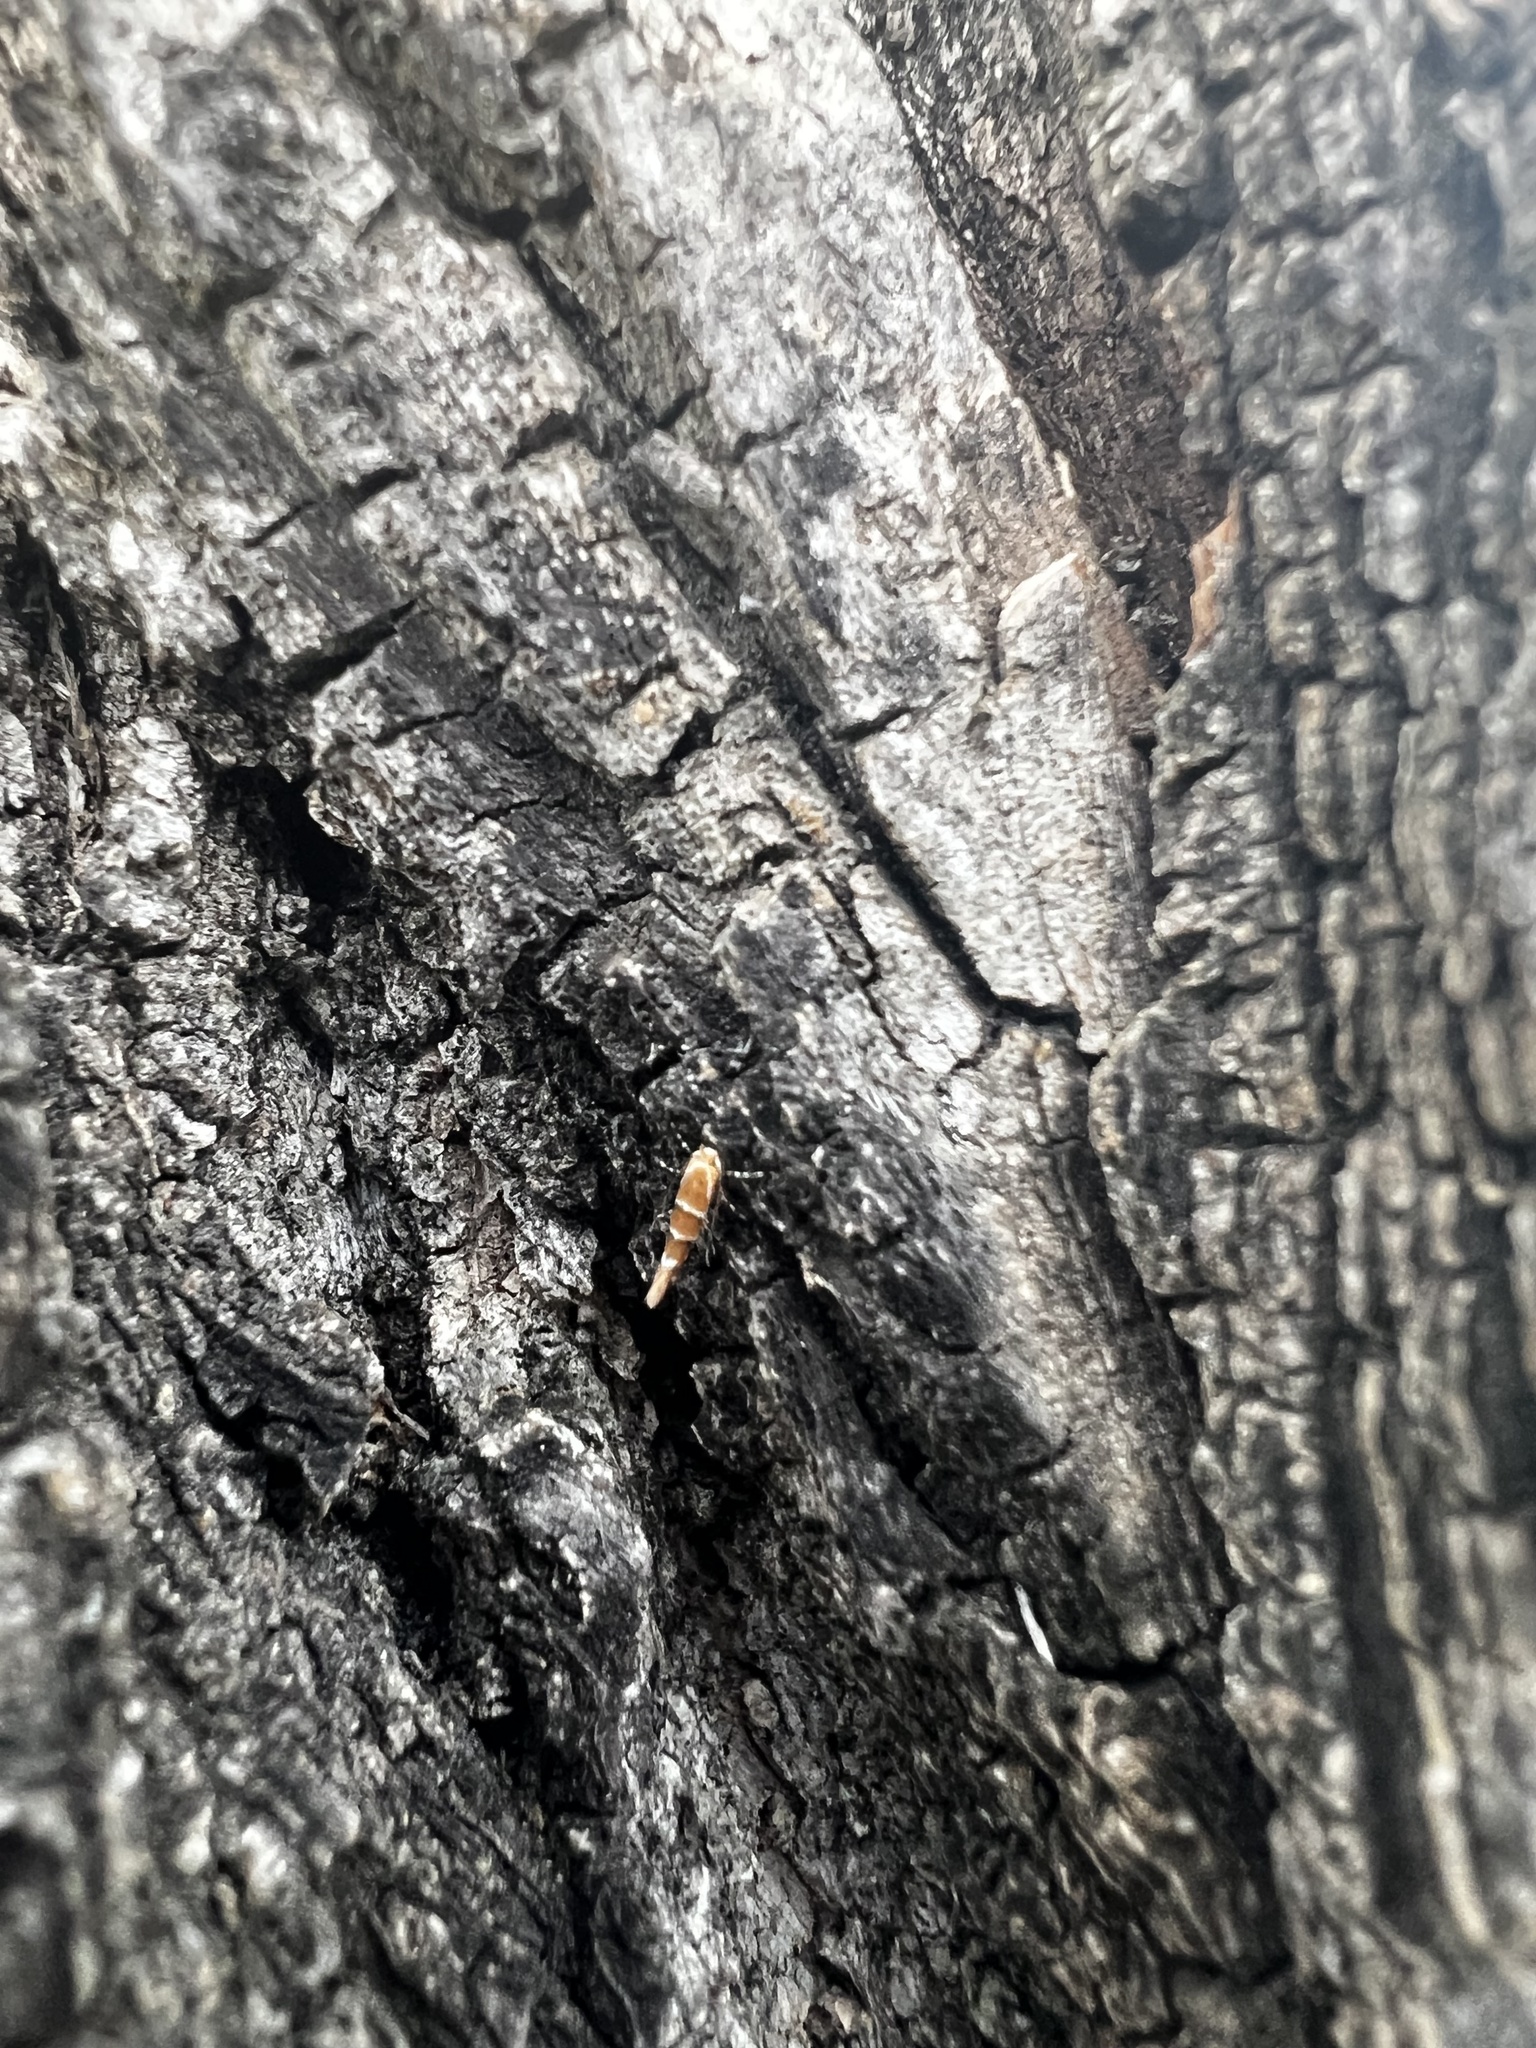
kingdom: Animalia
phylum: Arthropoda
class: Insecta
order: Lepidoptera
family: Gracillariidae
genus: Cameraria
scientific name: Cameraria ohridella
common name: Horse-chestnut leaf-miner
